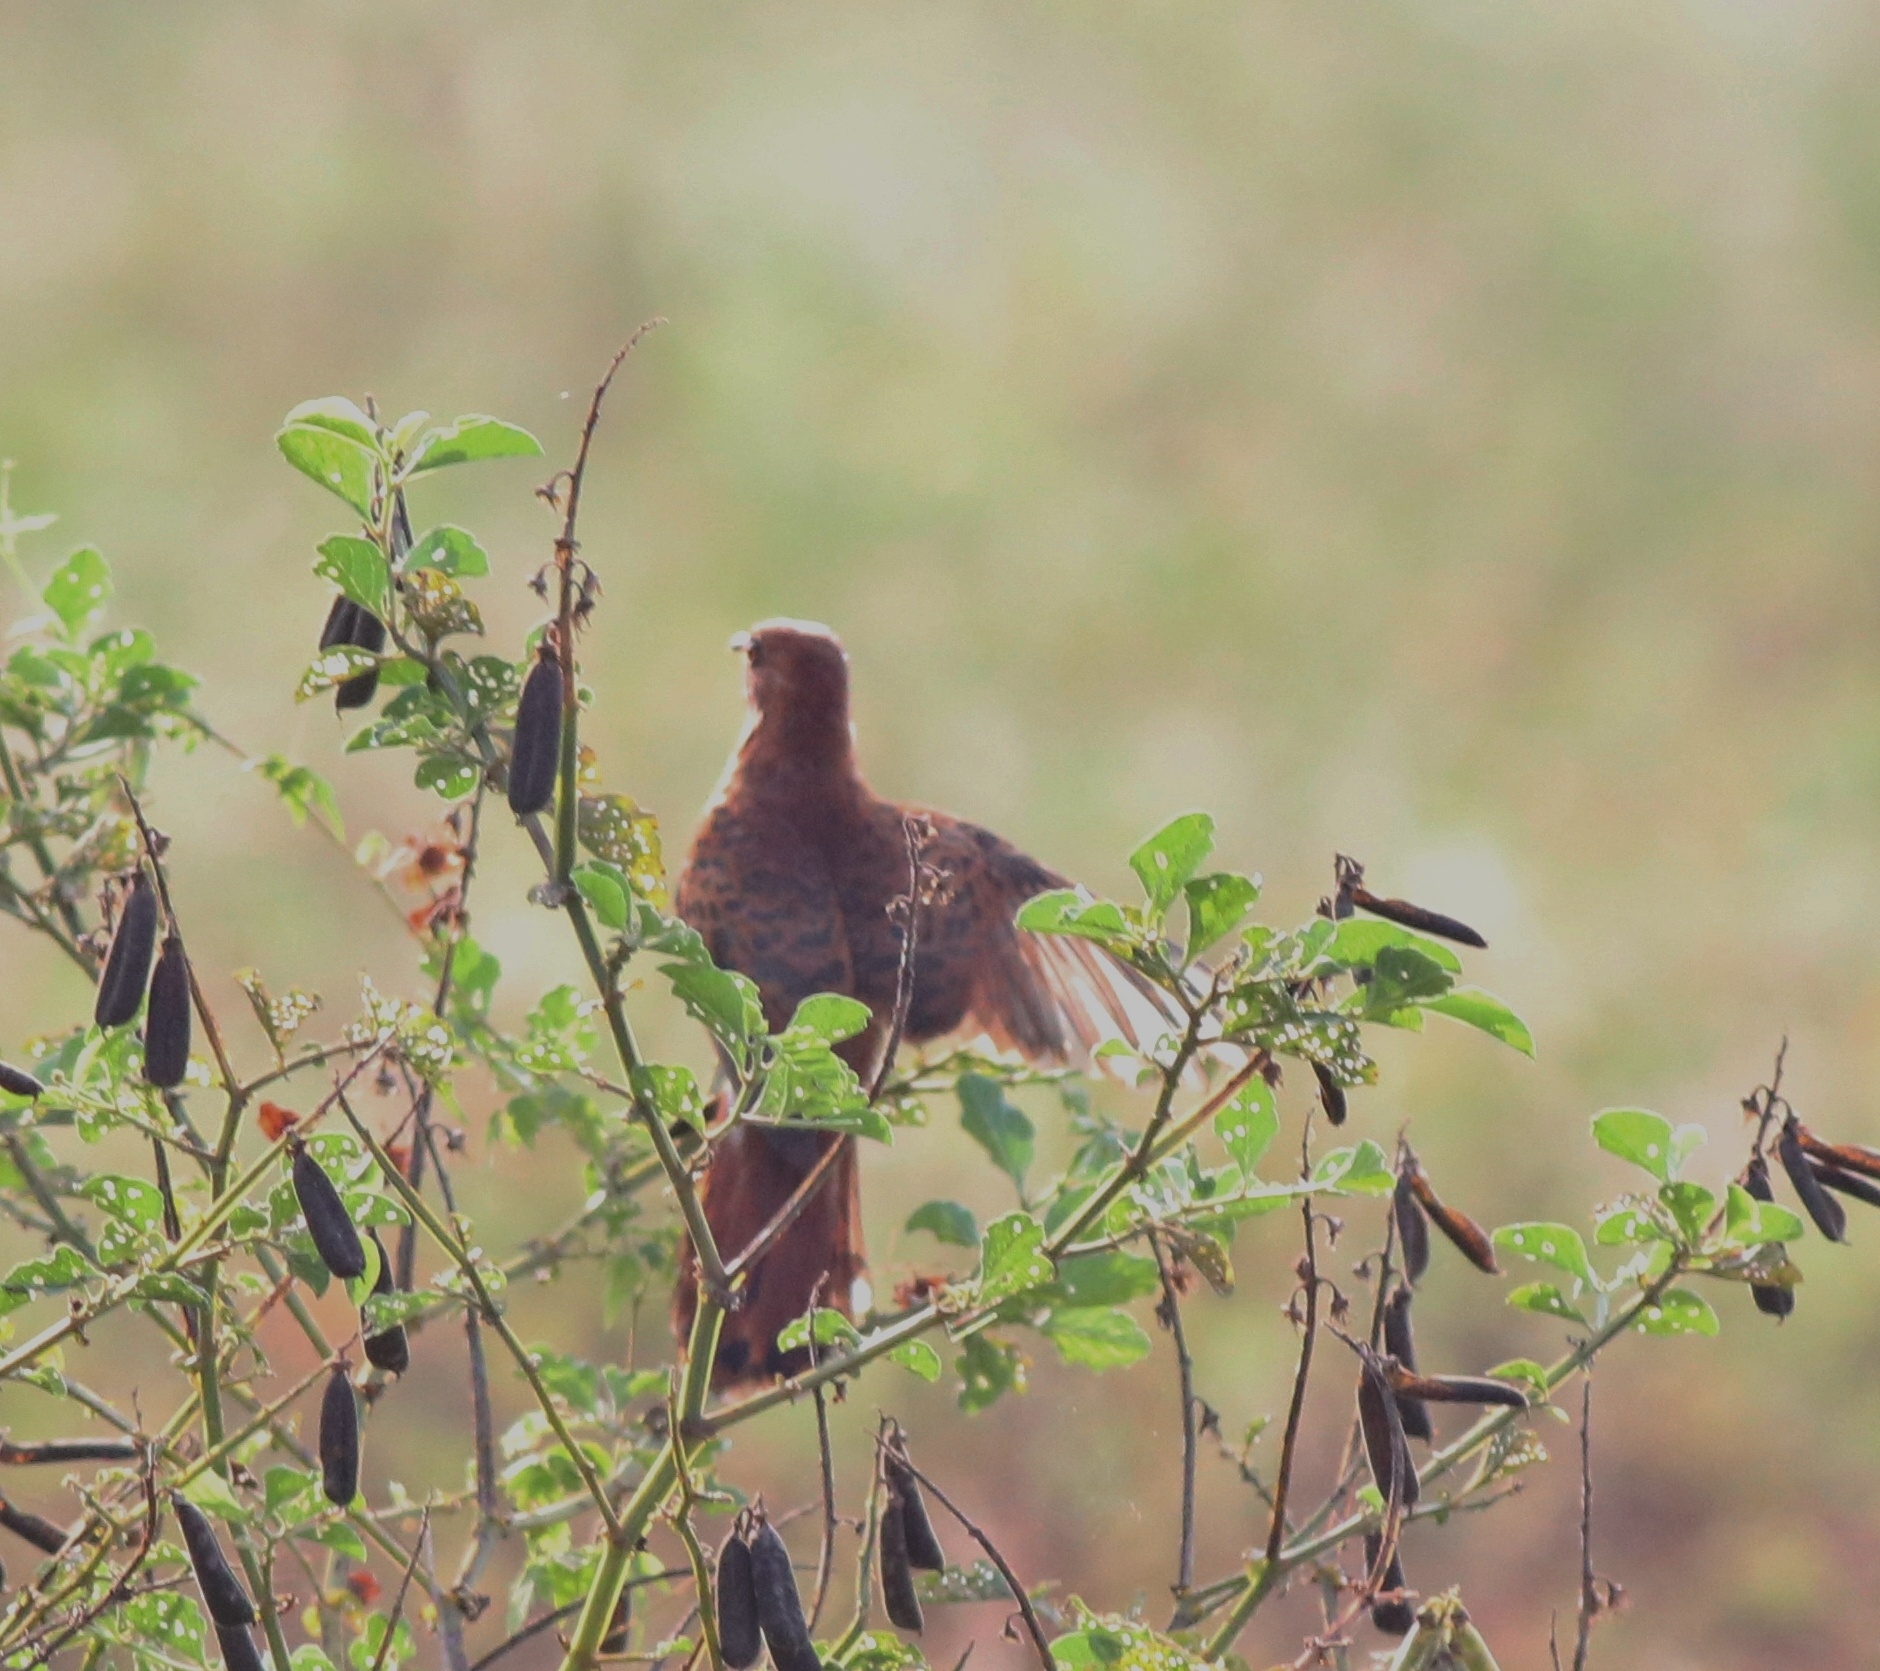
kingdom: Animalia
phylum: Chordata
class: Aves
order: Cuculiformes
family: Cuculidae
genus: Cacomantis
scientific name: Cacomantis passerinus
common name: Grey-bellied cuckoo
